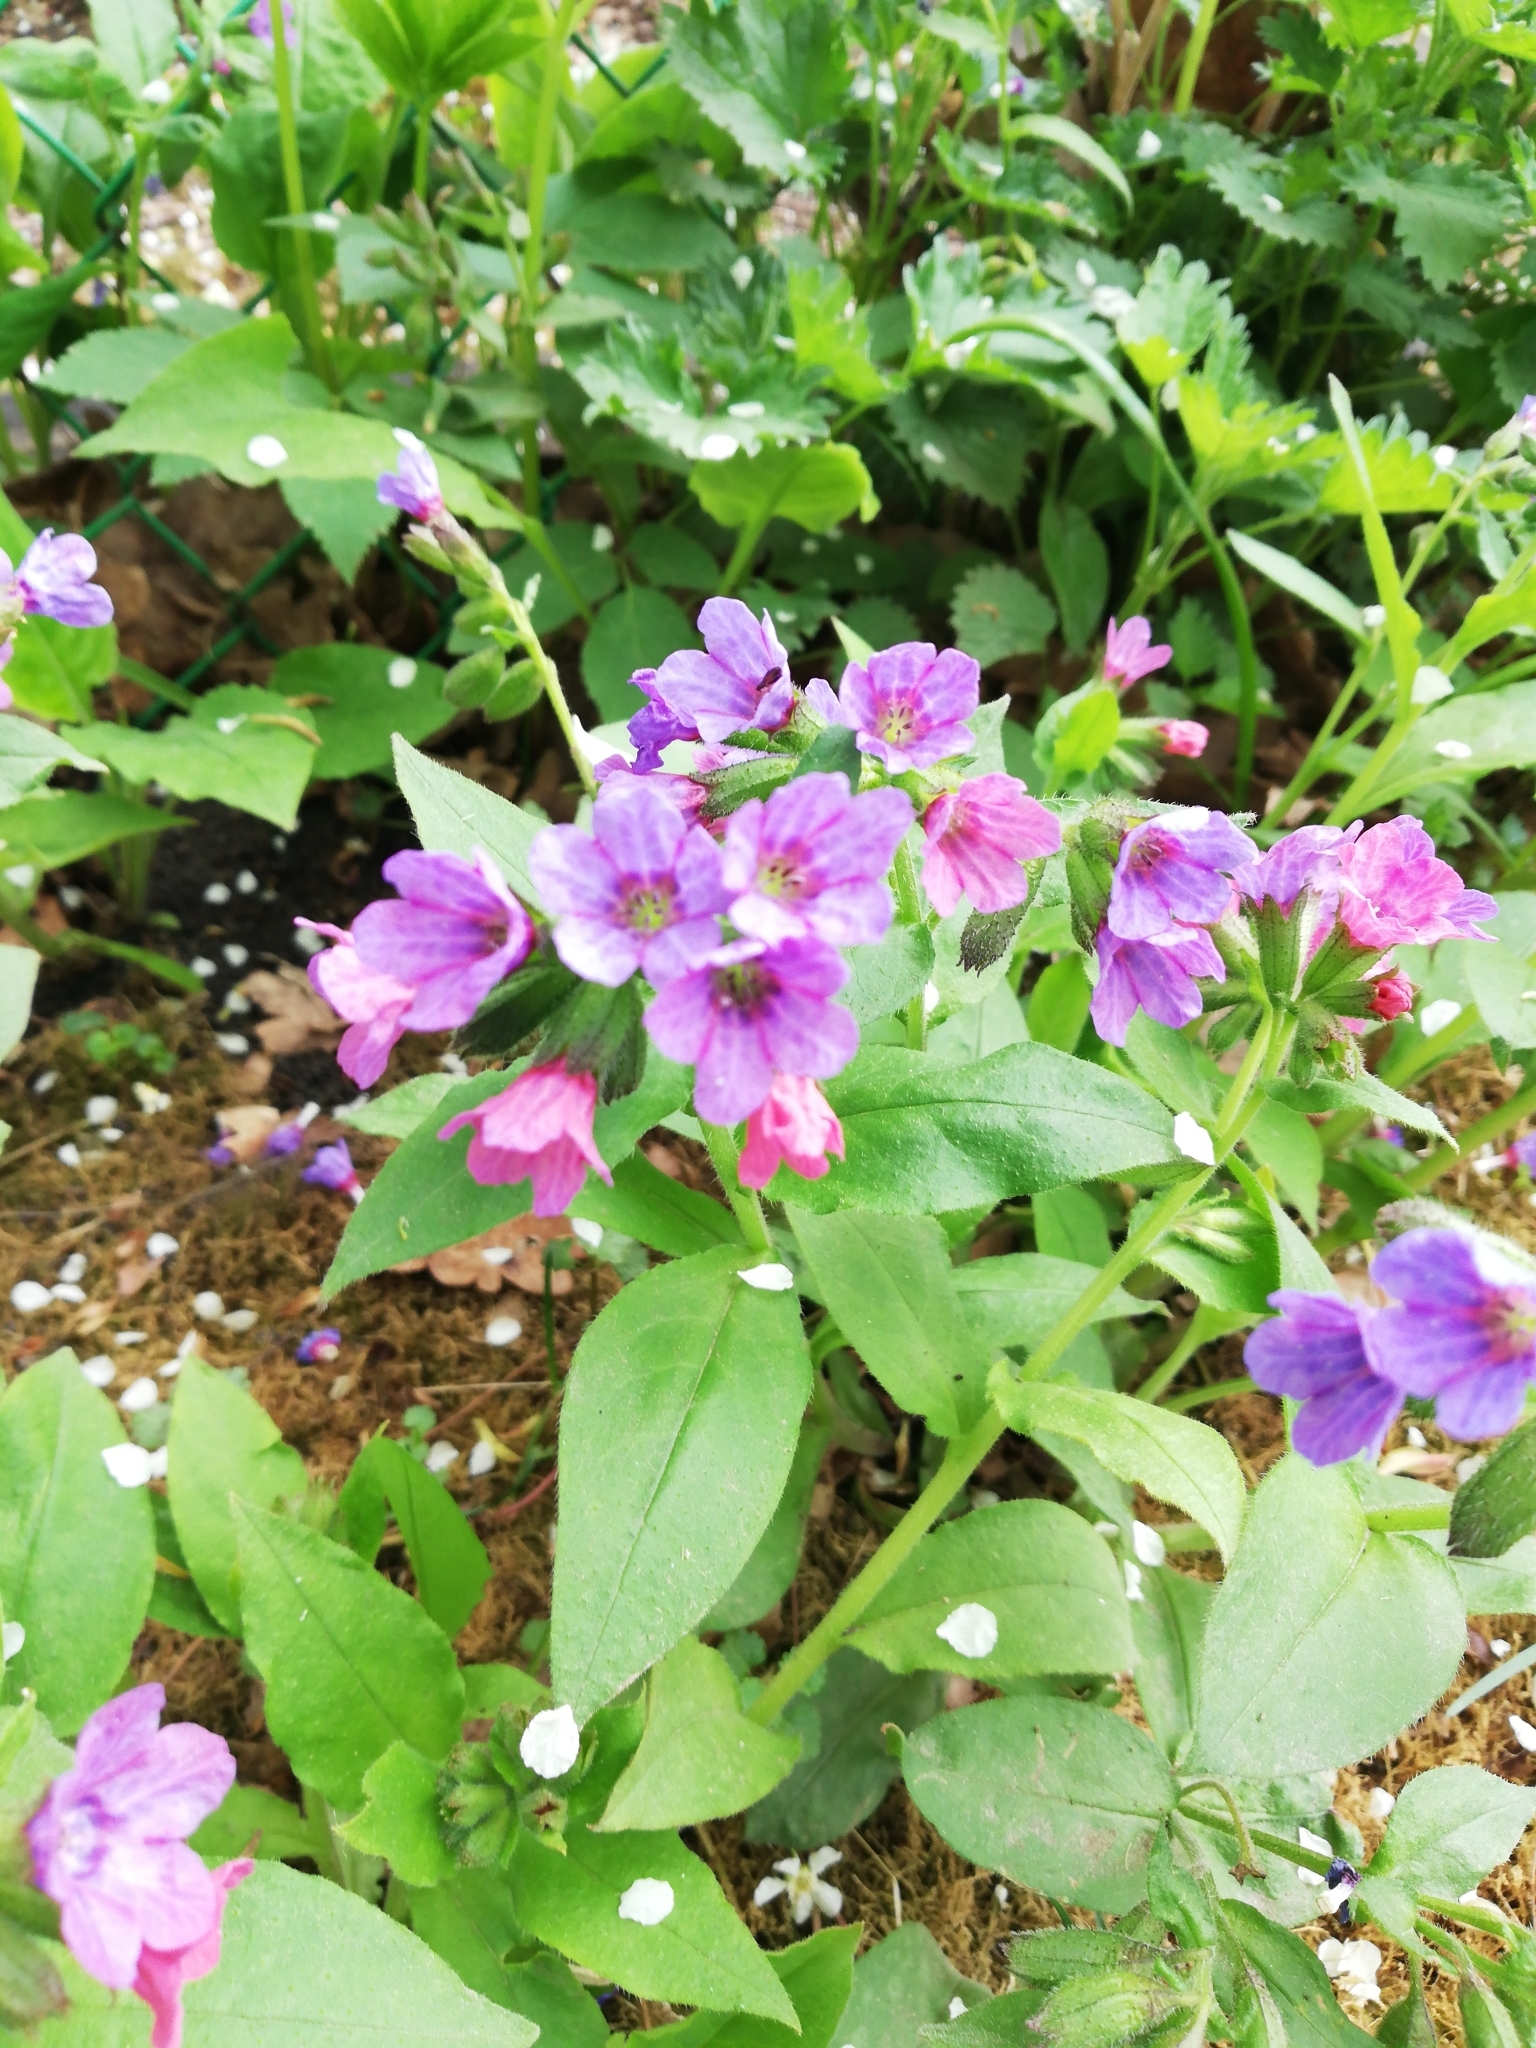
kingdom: Plantae
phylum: Tracheophyta
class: Magnoliopsida
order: Boraginales
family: Boraginaceae
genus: Pulmonaria
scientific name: Pulmonaria obscura
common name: Suffolk lungwort
